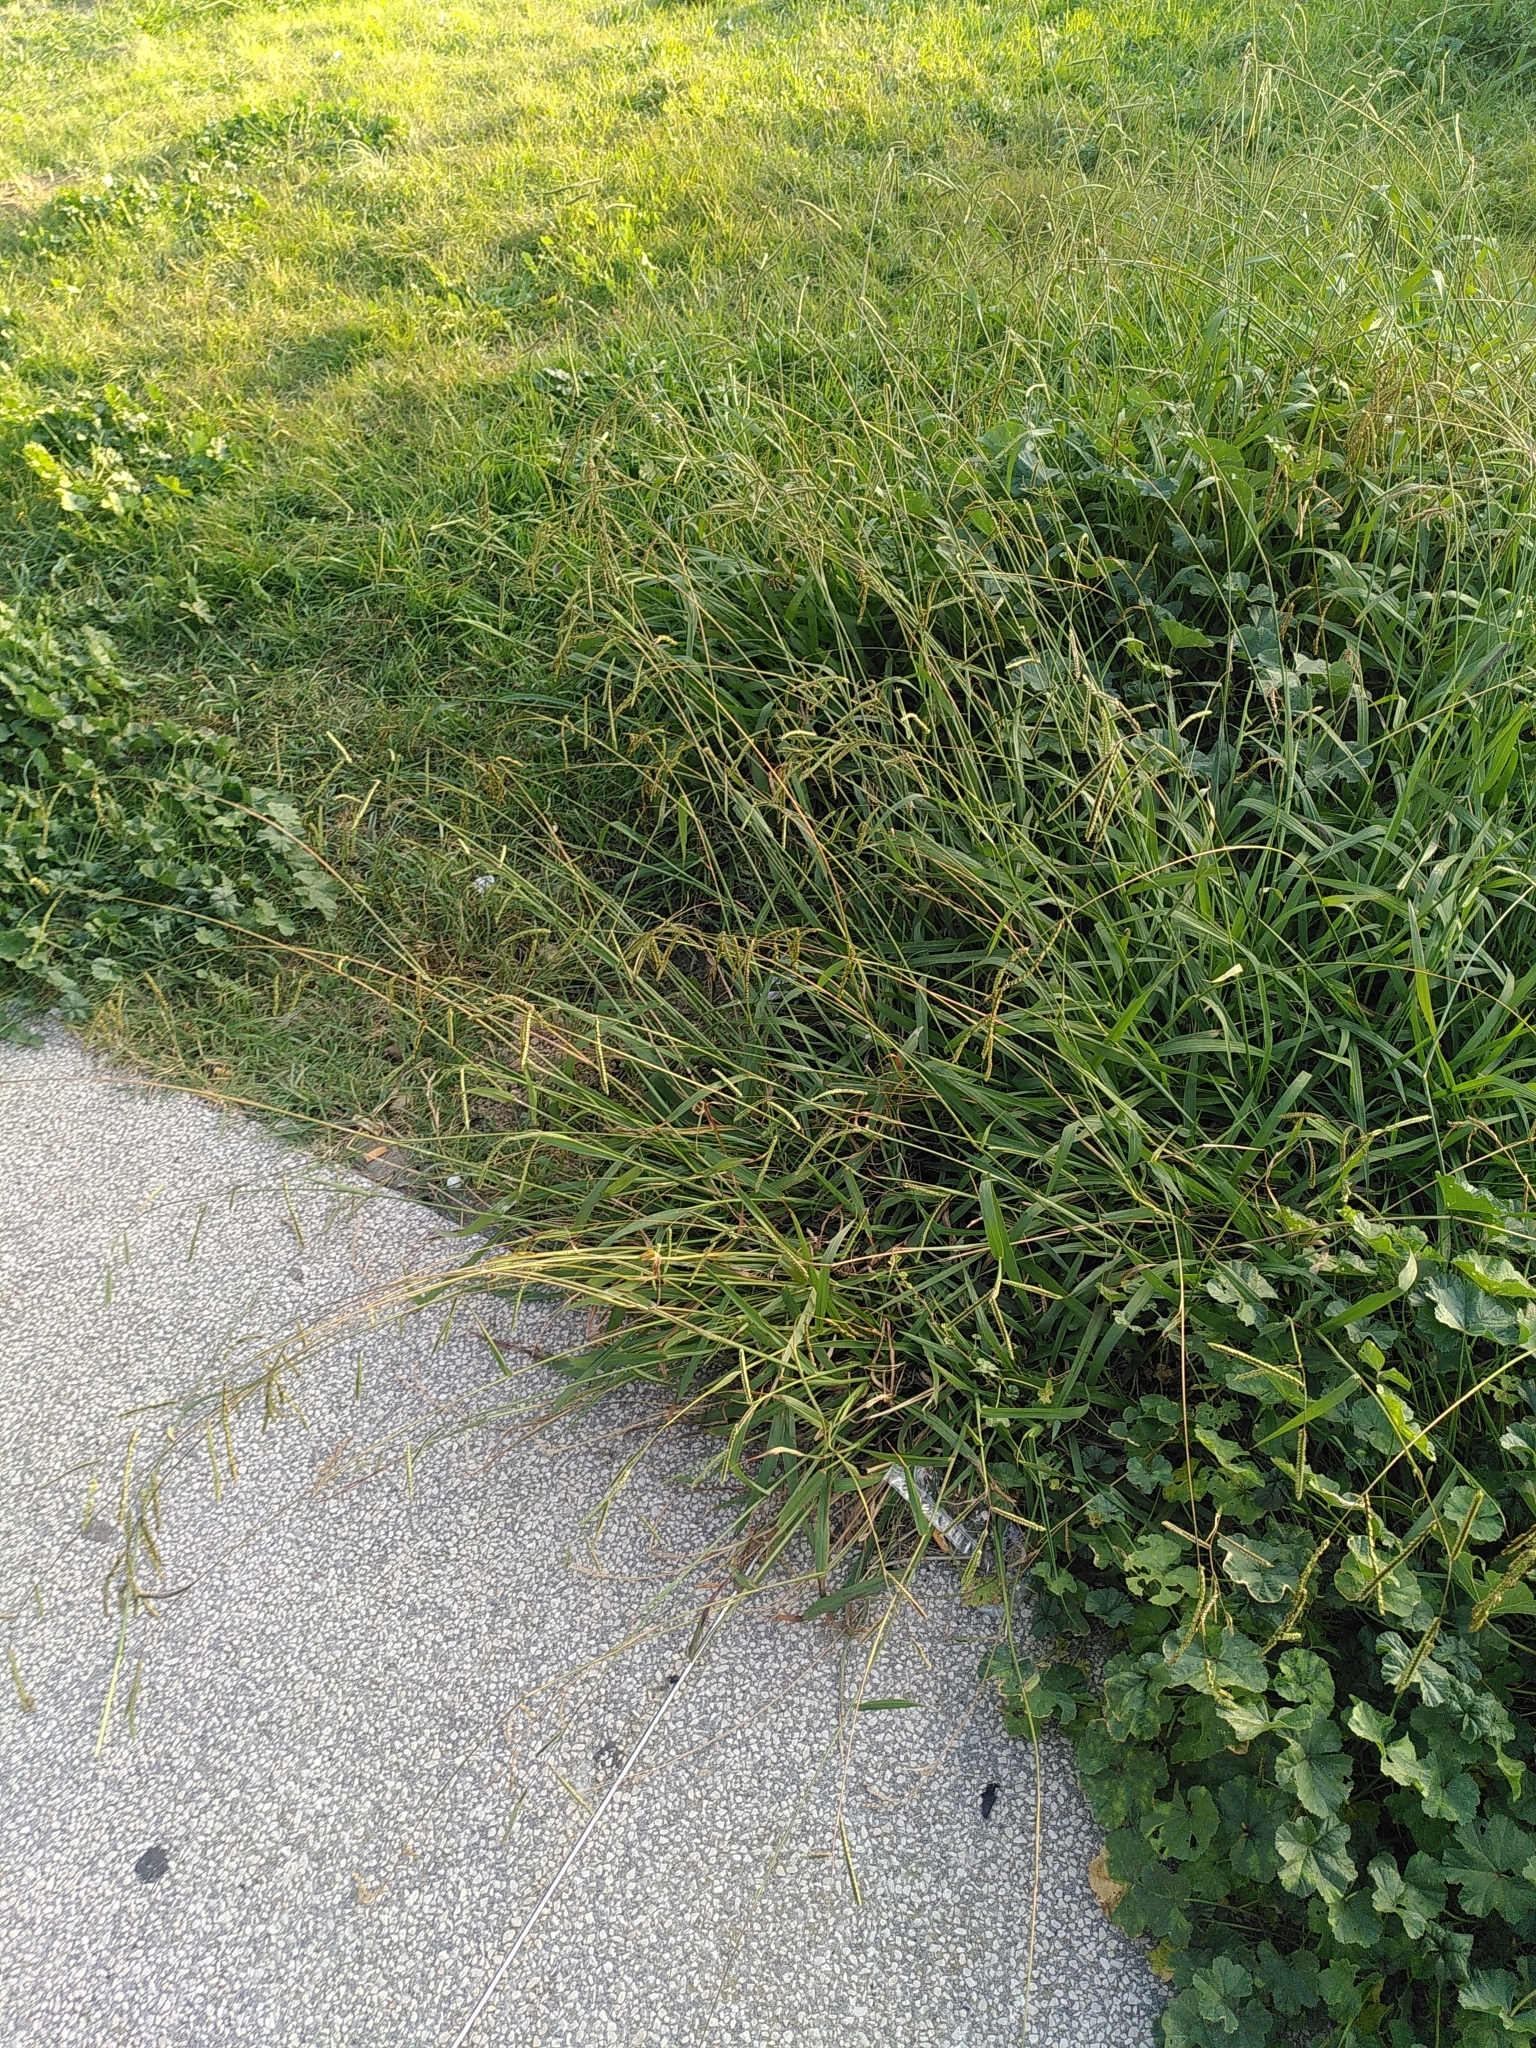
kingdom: Plantae
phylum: Tracheophyta
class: Liliopsida
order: Poales
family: Poaceae
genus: Paspalum
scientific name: Paspalum dilatatum
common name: Dallisgrass
